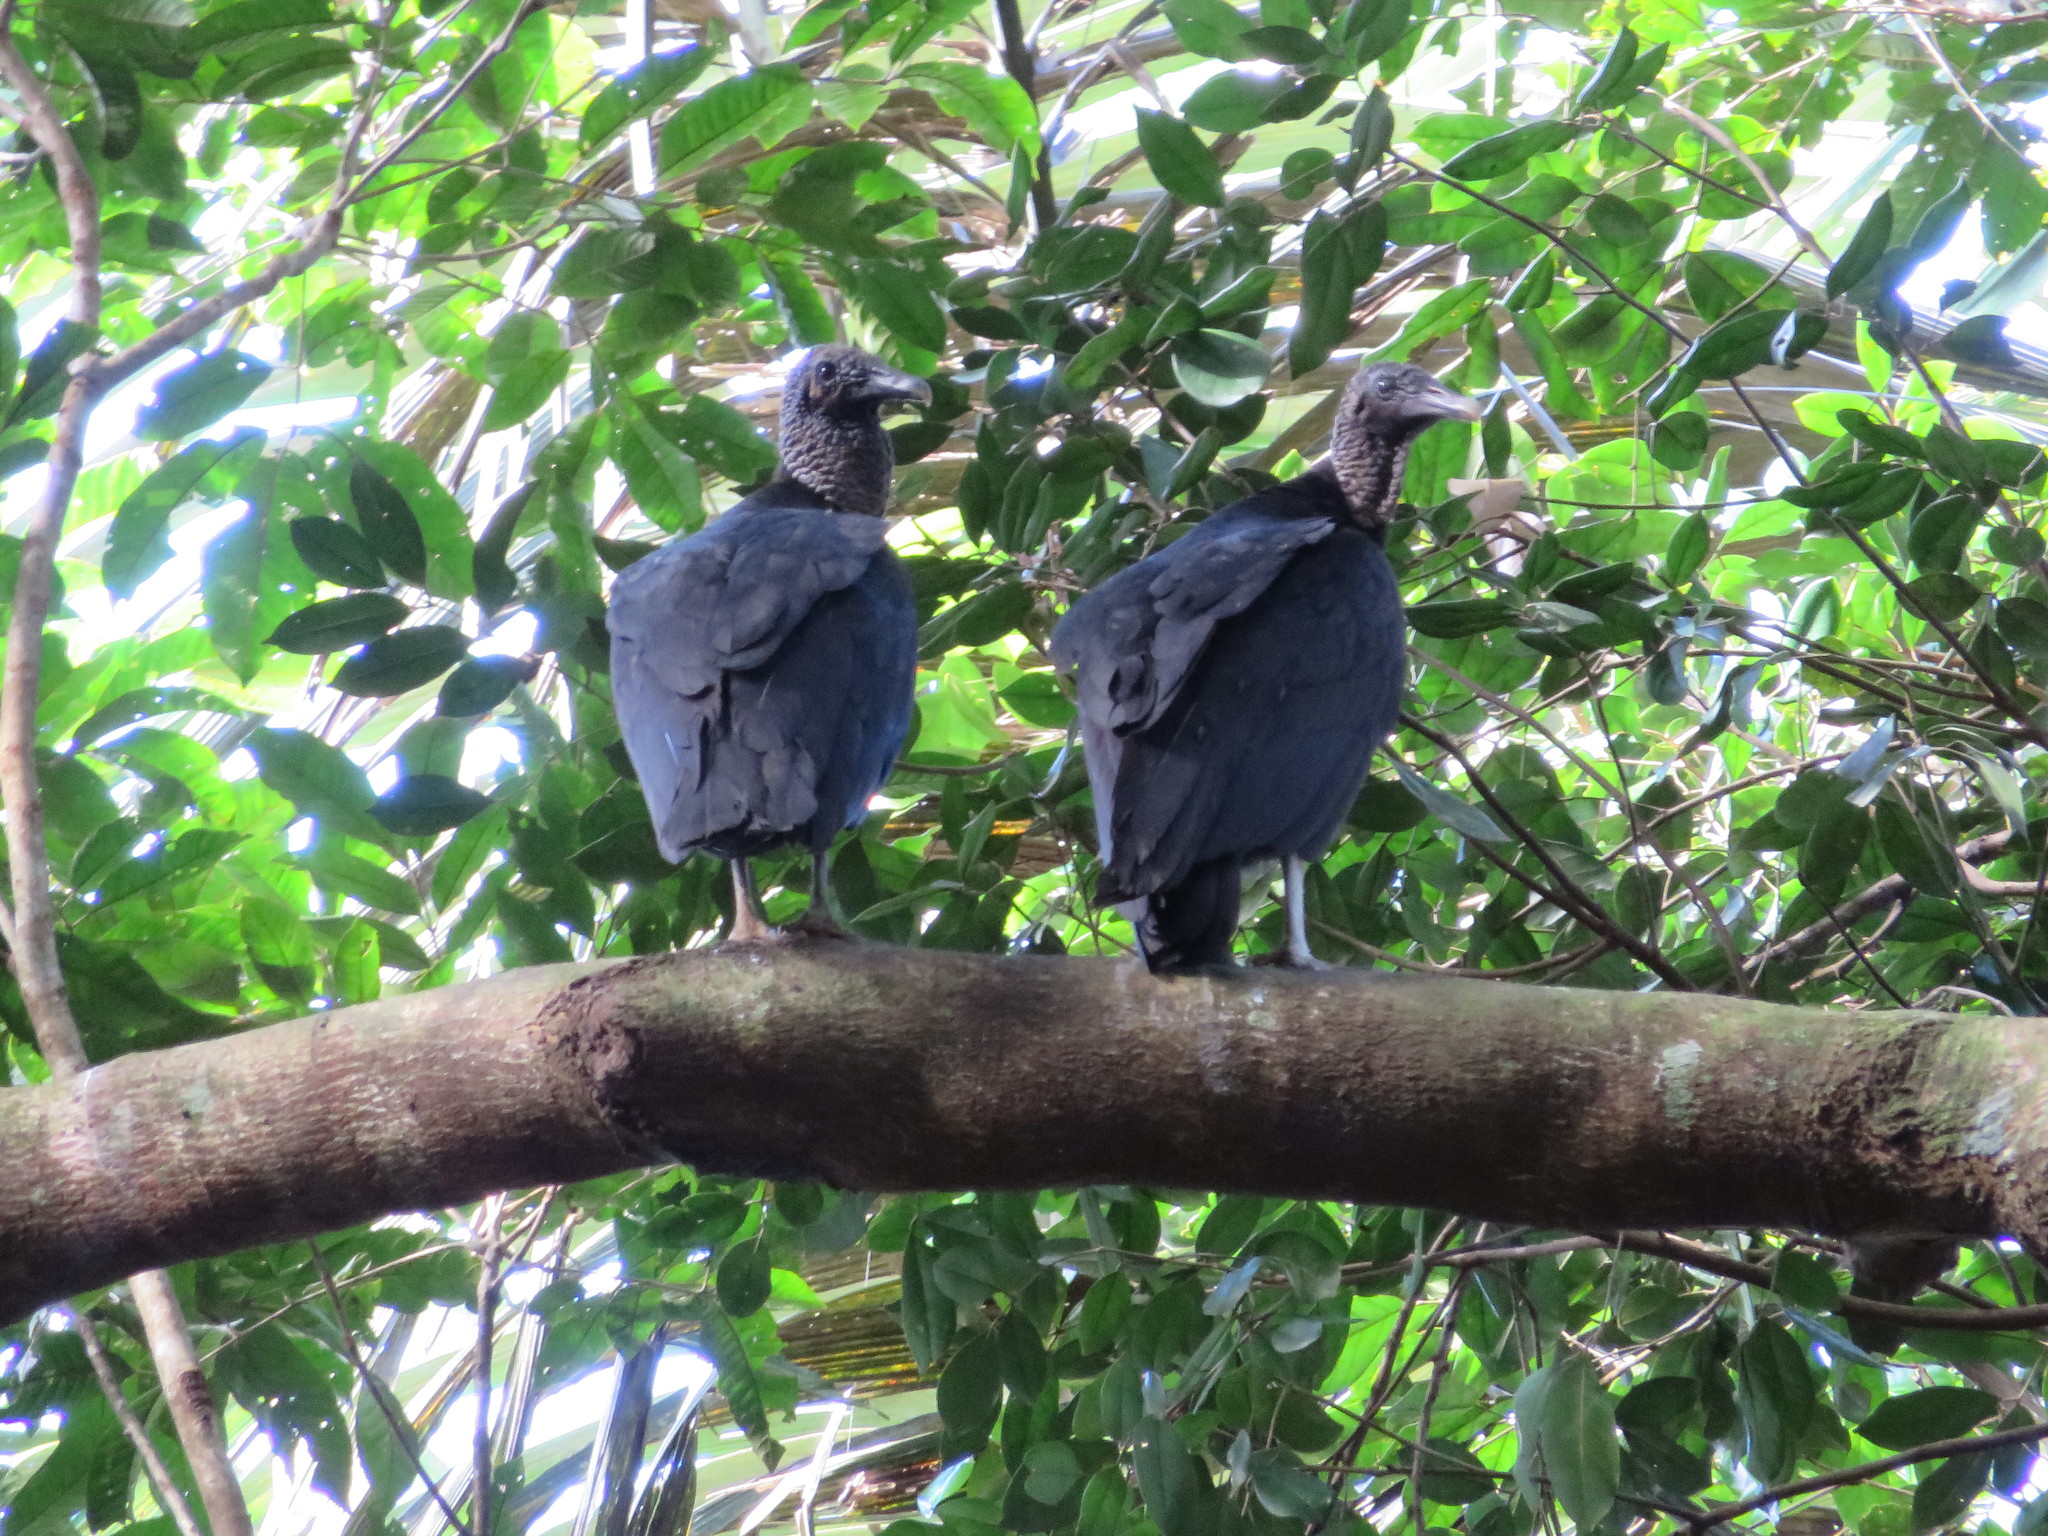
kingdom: Animalia
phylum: Chordata
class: Aves
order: Accipitriformes
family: Cathartidae
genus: Coragyps
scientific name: Coragyps atratus
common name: Black vulture
